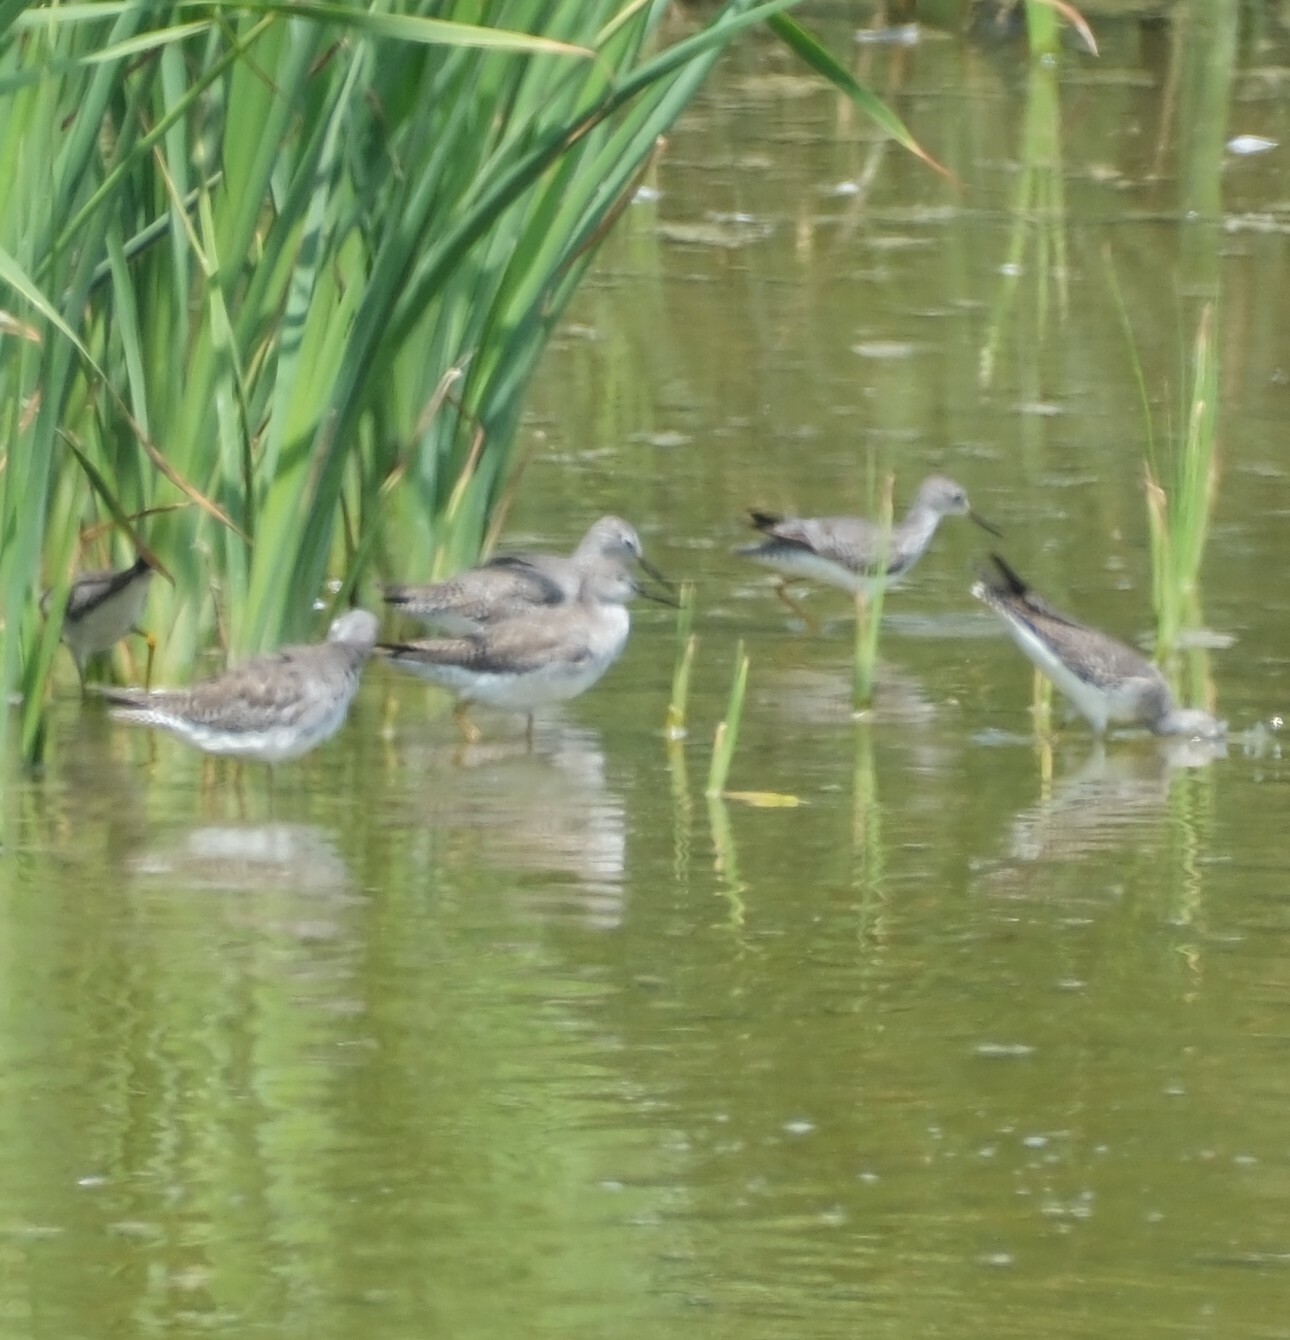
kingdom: Animalia
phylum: Chordata
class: Aves
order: Charadriiformes
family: Scolopacidae
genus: Tringa
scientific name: Tringa flavipes
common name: Lesser yellowlegs
